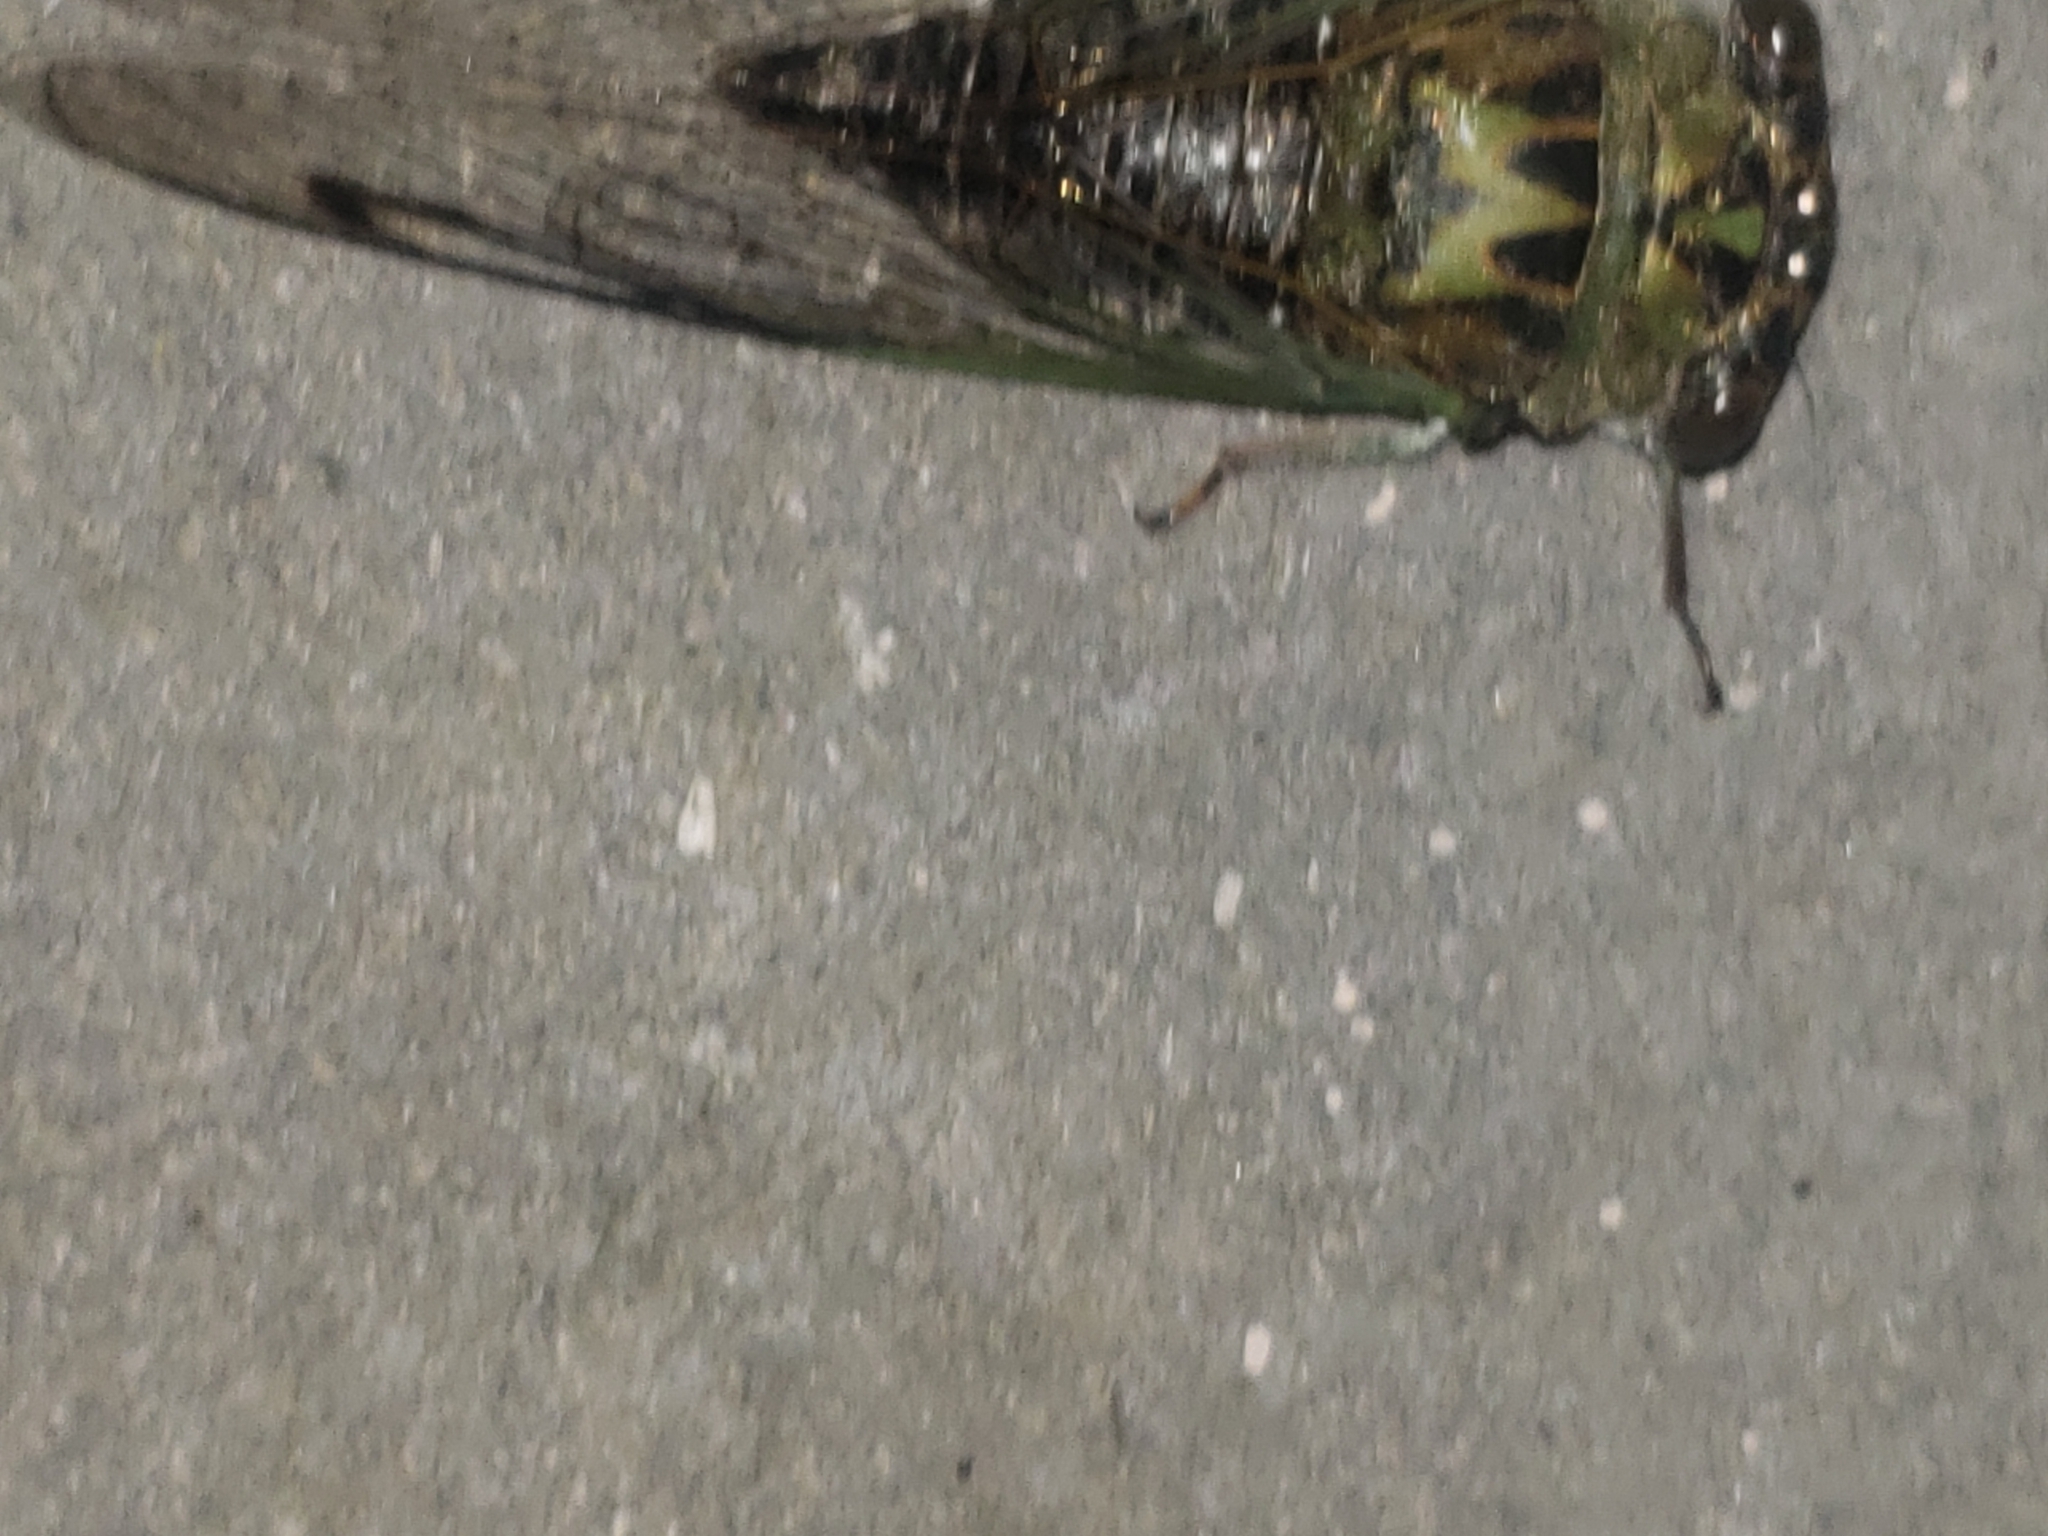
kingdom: Animalia
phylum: Arthropoda
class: Insecta
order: Hemiptera
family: Cicadidae
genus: Neotibicen
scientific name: Neotibicen winnemanna
